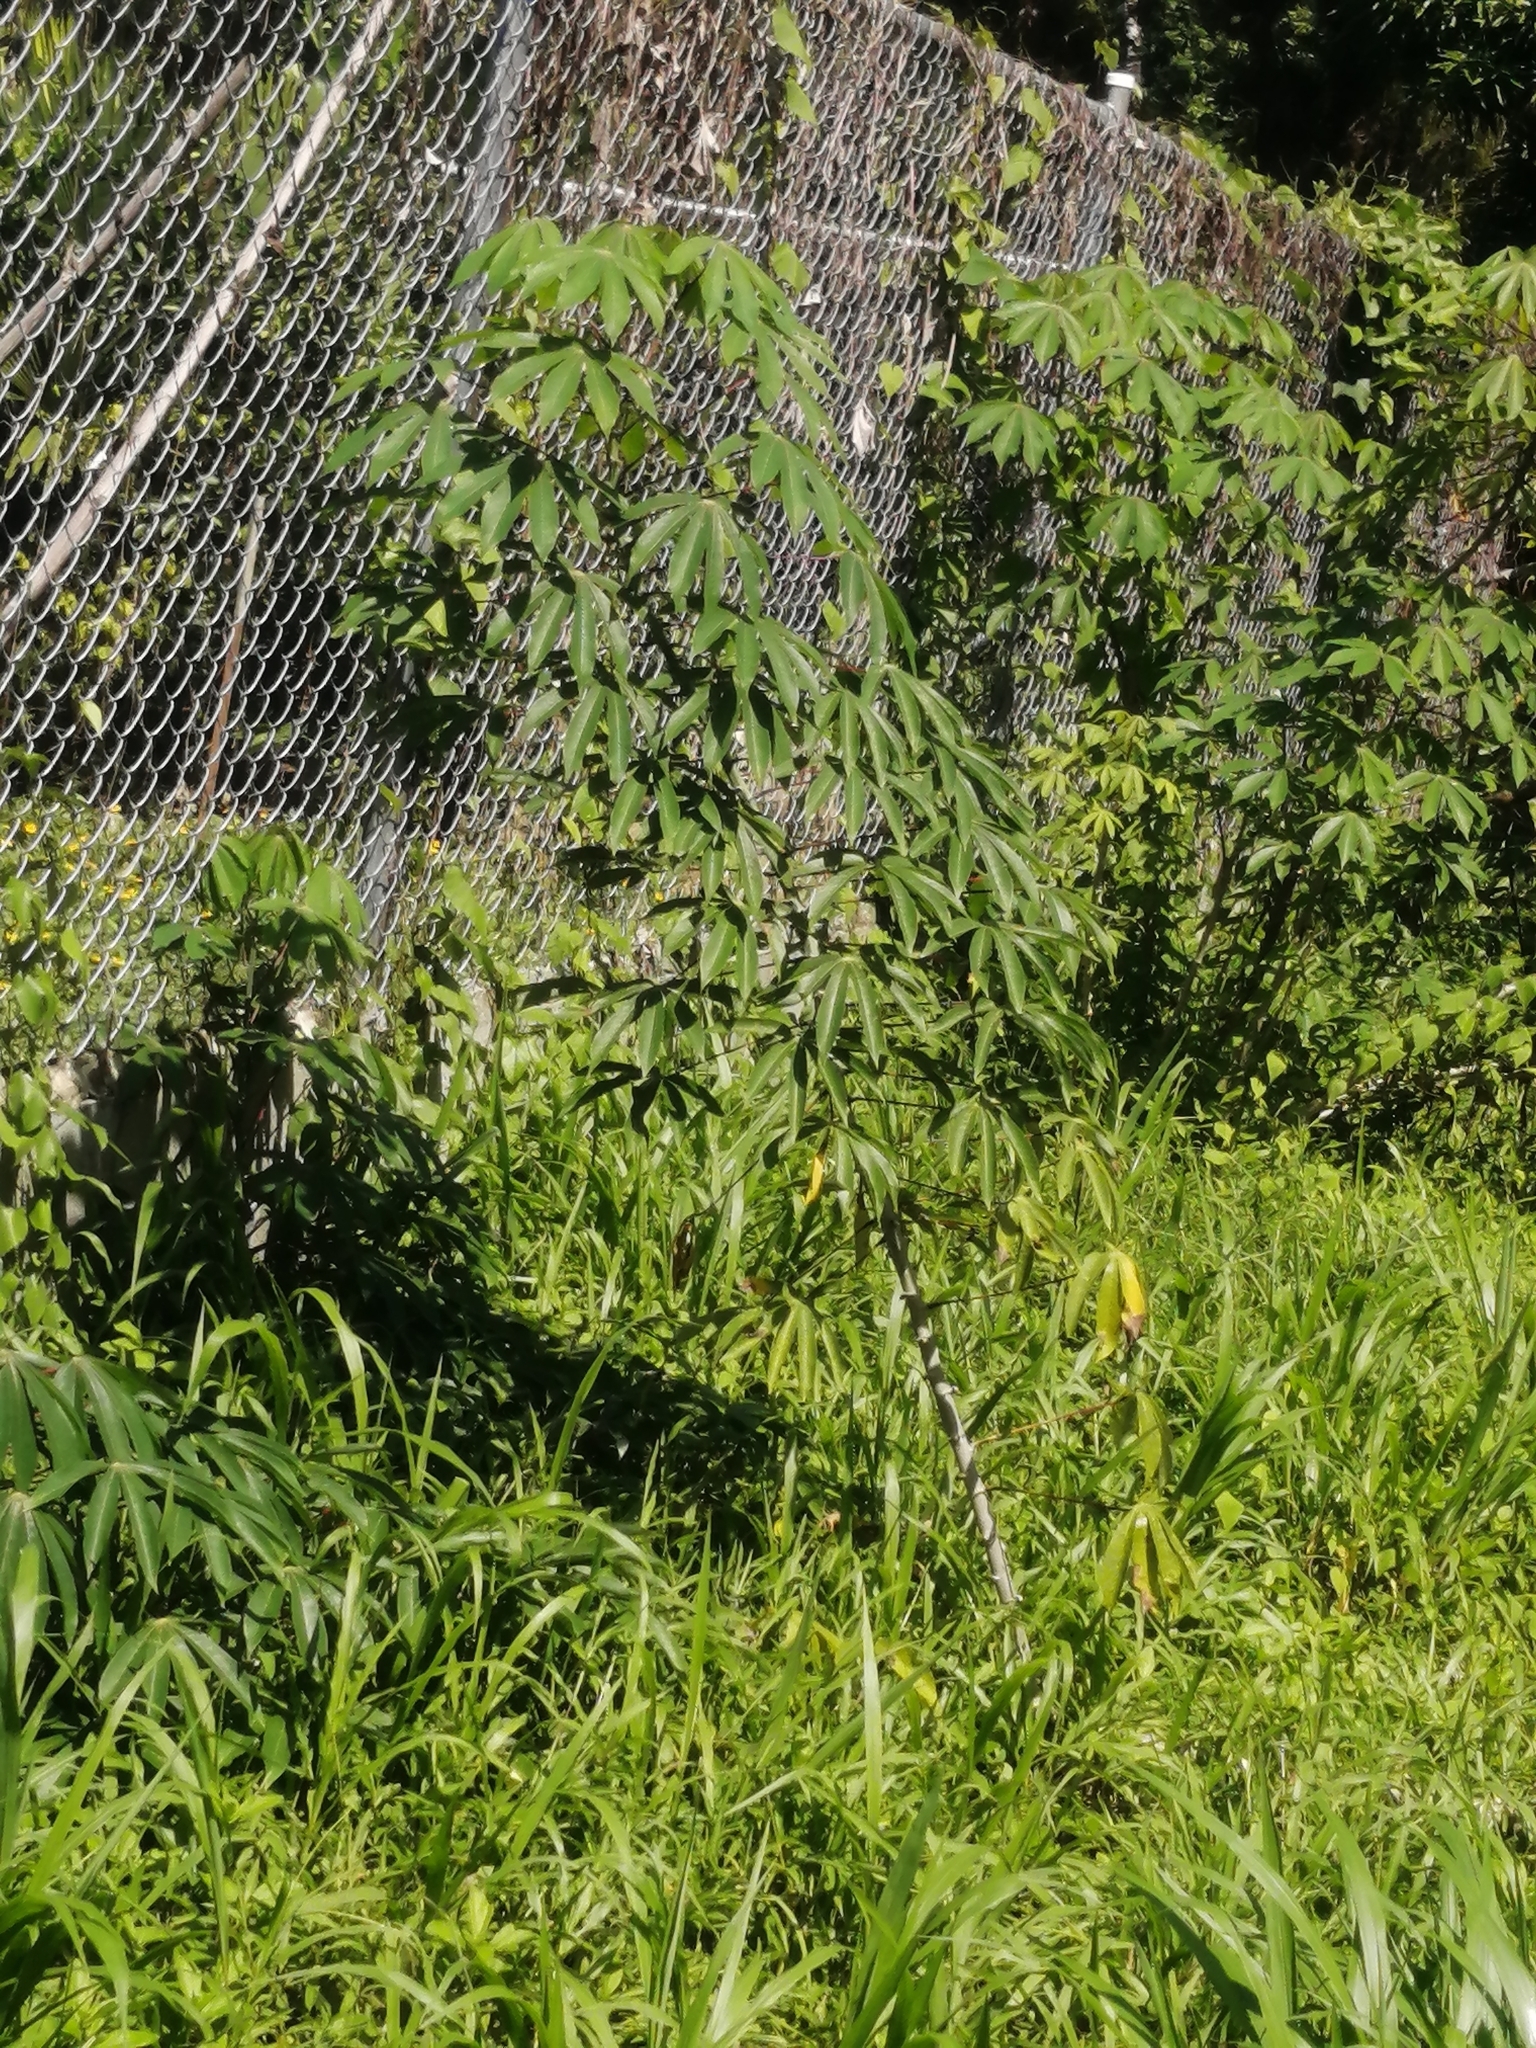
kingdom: Plantae
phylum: Tracheophyta
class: Magnoliopsida
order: Malpighiales
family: Euphorbiaceae
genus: Manihot
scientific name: Manihot esculenta
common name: Cassava
